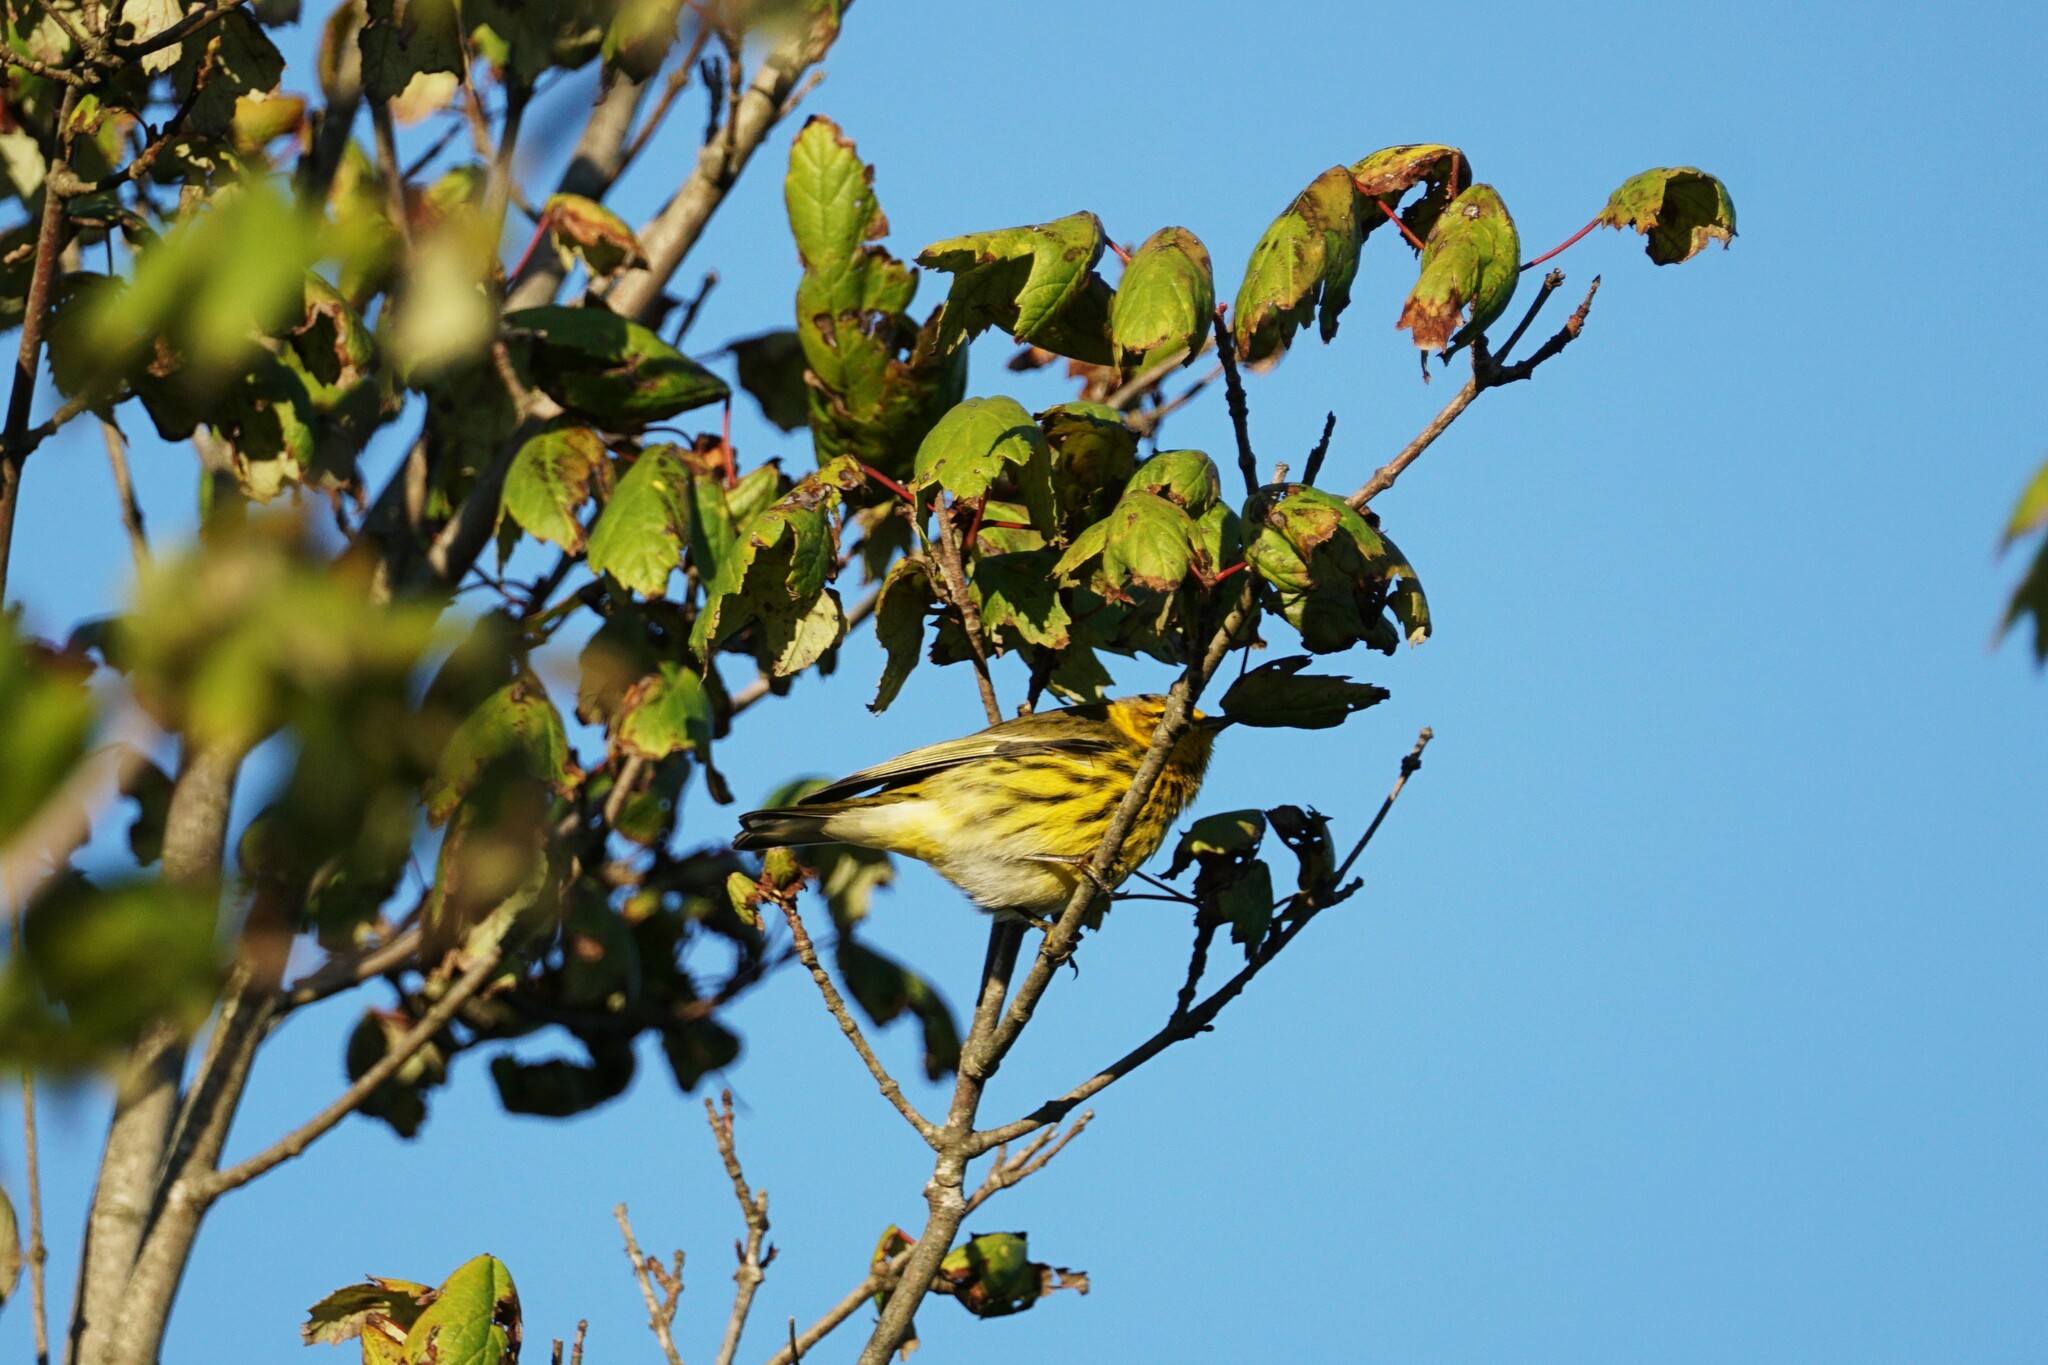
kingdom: Animalia
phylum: Chordata
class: Aves
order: Passeriformes
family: Parulidae
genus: Setophaga
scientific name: Setophaga tigrina
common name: Cape may warbler
